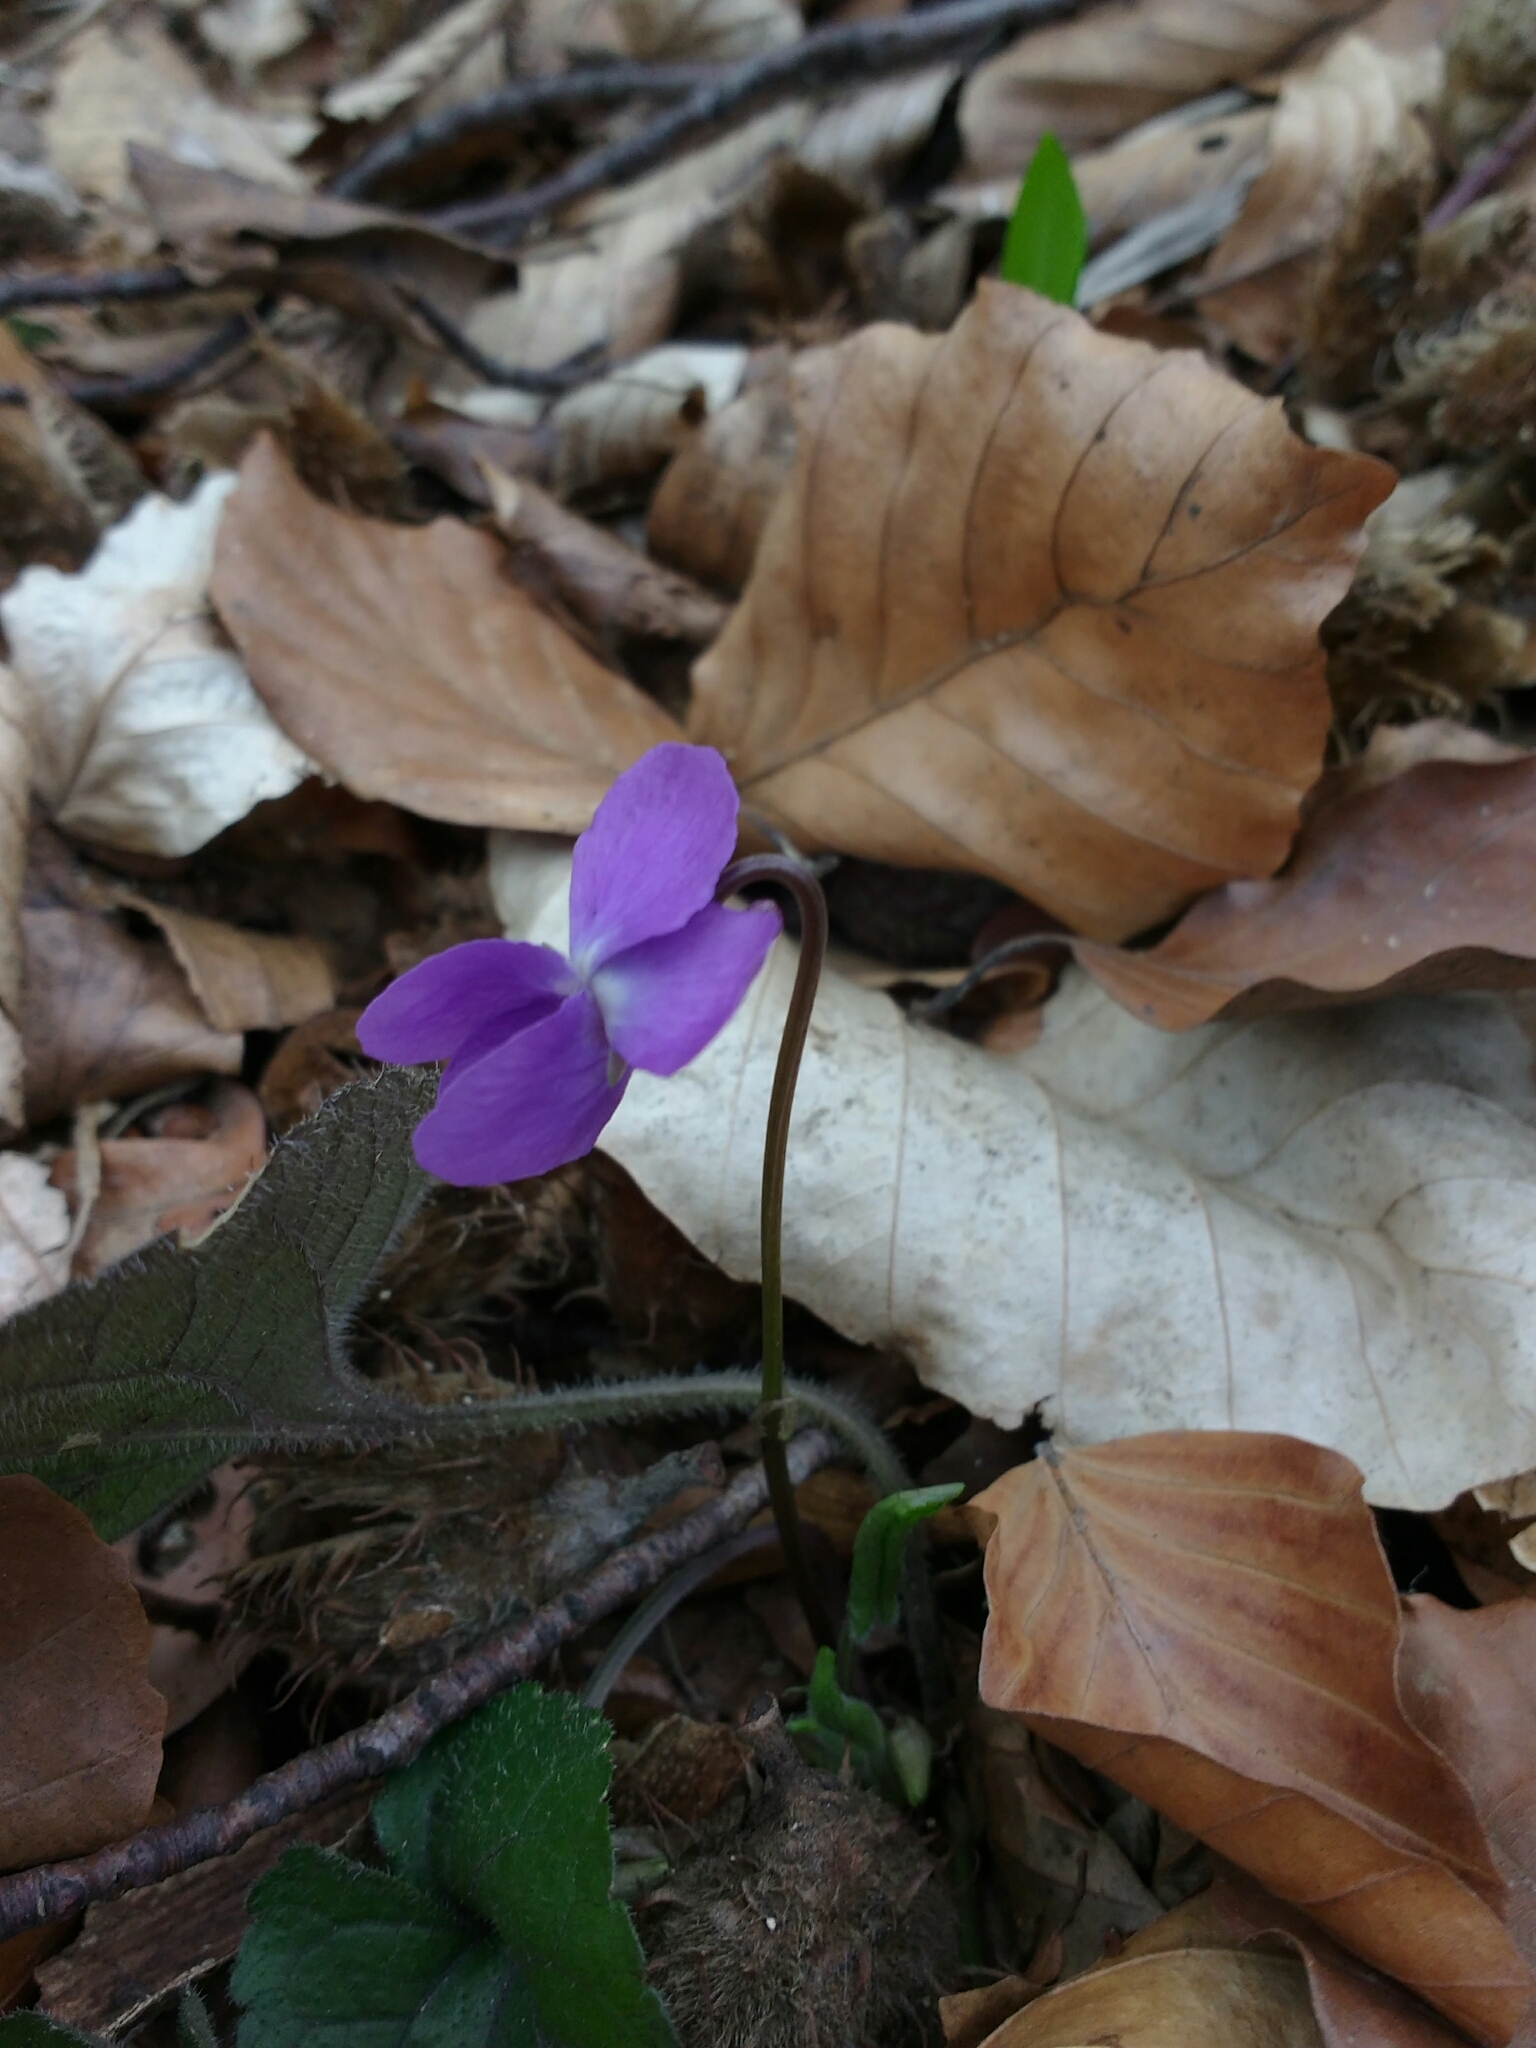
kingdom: Plantae
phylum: Tracheophyta
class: Magnoliopsida
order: Malpighiales
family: Violaceae
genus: Viola
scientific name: Viola alba
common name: White violet
